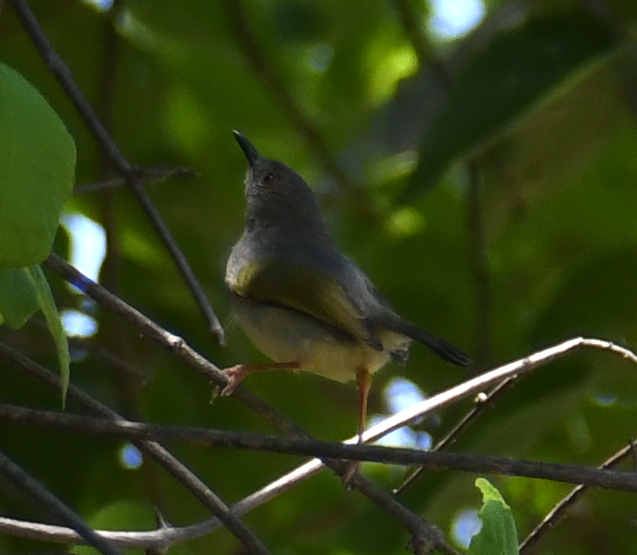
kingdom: Animalia
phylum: Chordata
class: Aves
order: Passeriformes
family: Cisticolidae
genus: Camaroptera
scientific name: Camaroptera brachyura
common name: Green-backed camaroptera
